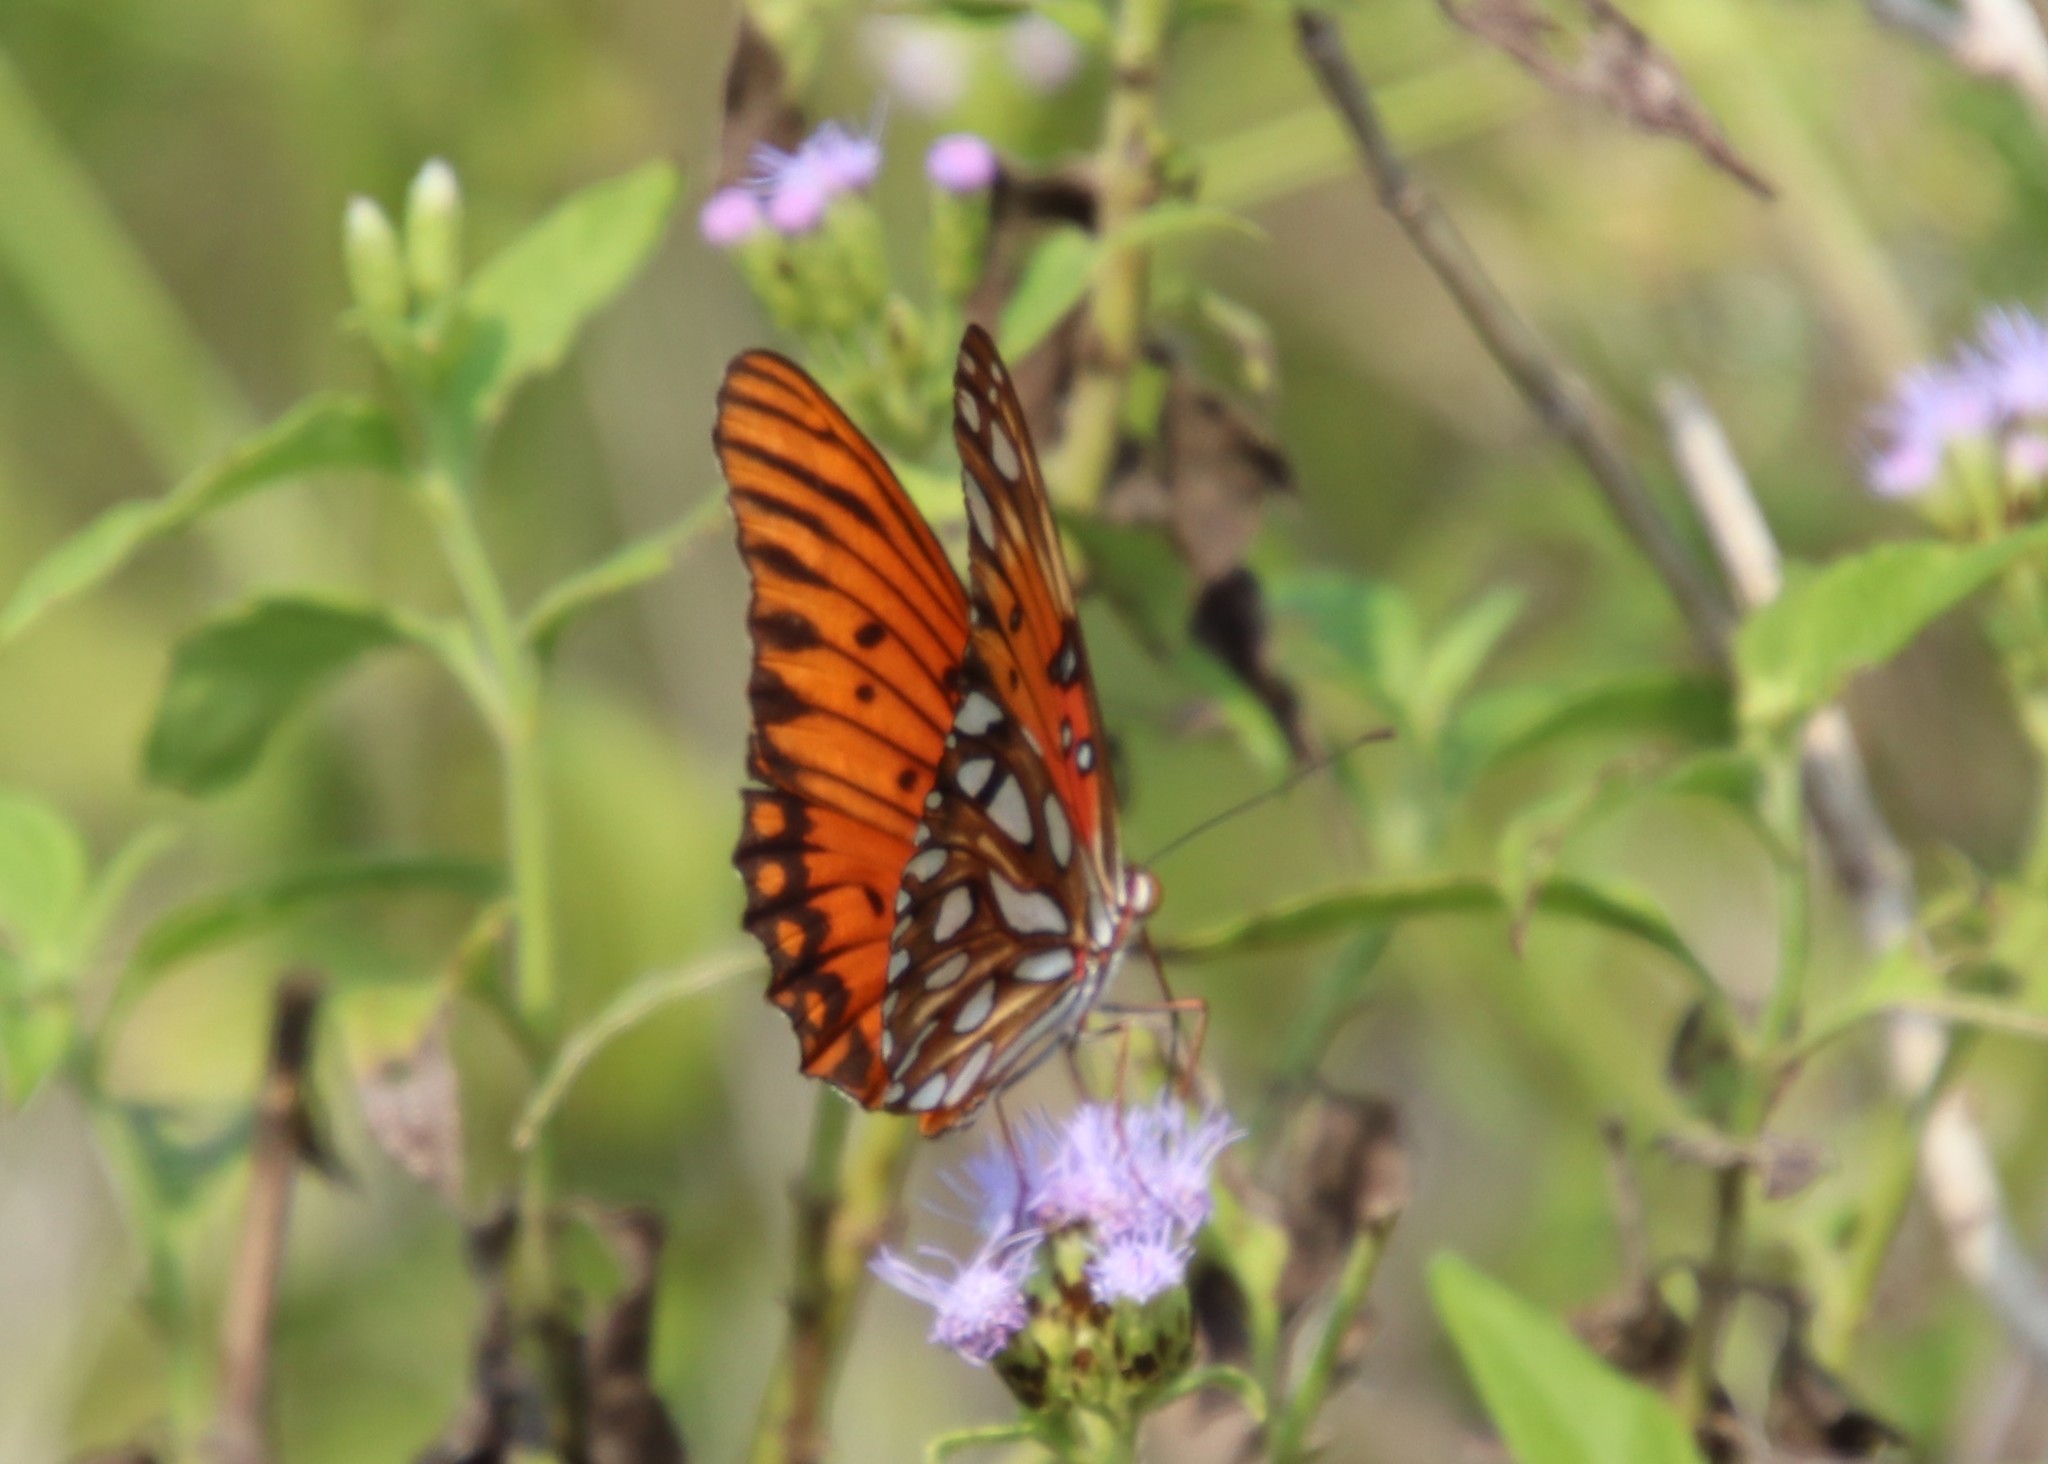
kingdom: Animalia
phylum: Arthropoda
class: Insecta
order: Lepidoptera
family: Nymphalidae
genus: Dione
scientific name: Dione vanillae
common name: Gulf fritillary
